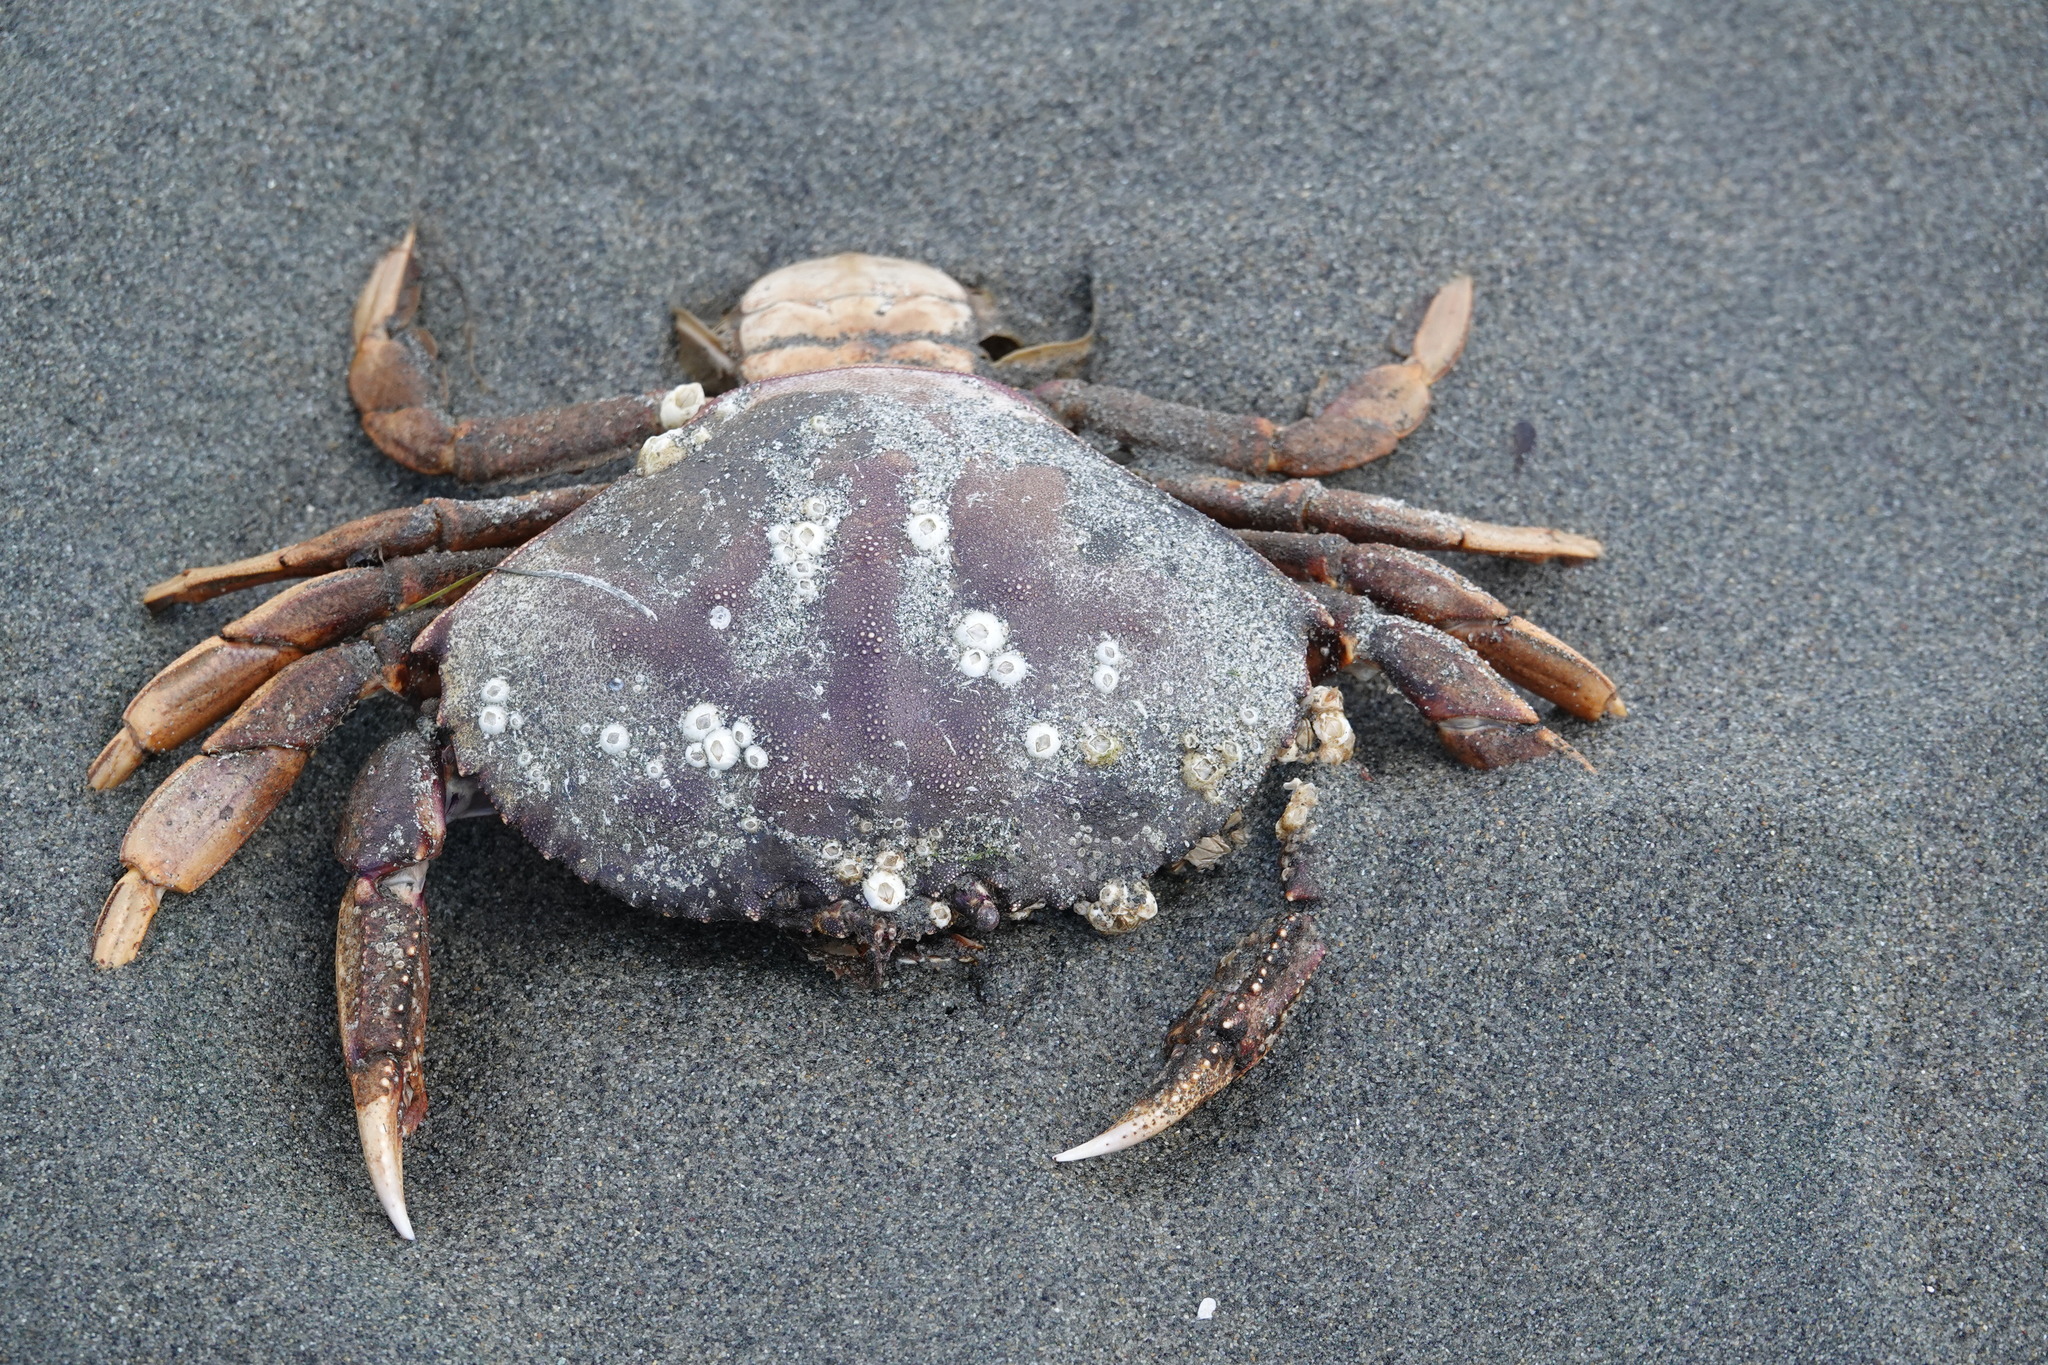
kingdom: Animalia
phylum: Arthropoda
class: Malacostraca
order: Decapoda
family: Cancridae
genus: Metacarcinus
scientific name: Metacarcinus magister
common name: Californian crab
